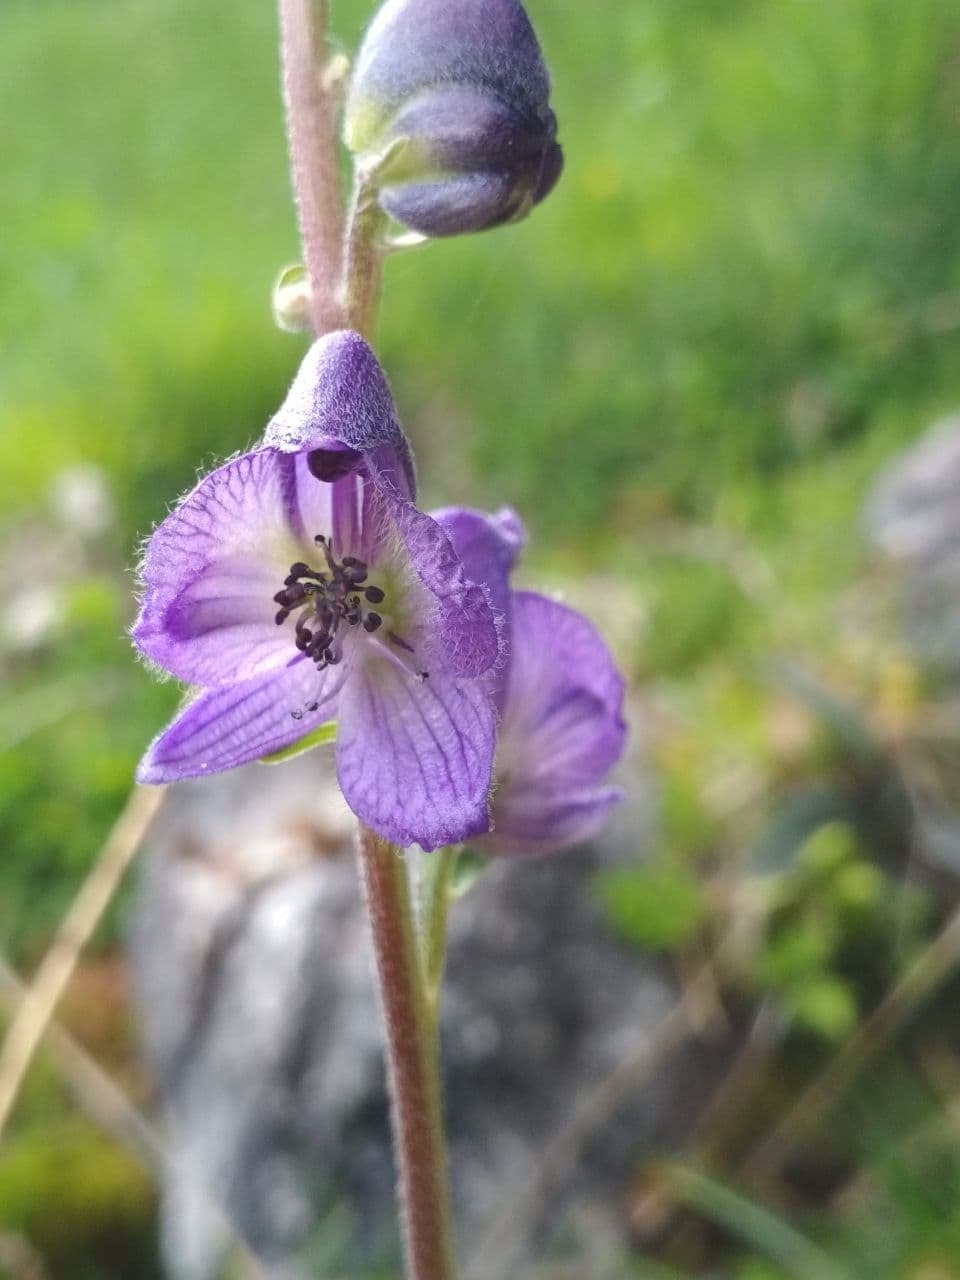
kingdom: Plantae
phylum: Tracheophyta
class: Magnoliopsida
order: Ranunculales
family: Ranunculaceae
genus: Aconitum
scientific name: Aconitum napellus
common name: Garden monkshood
